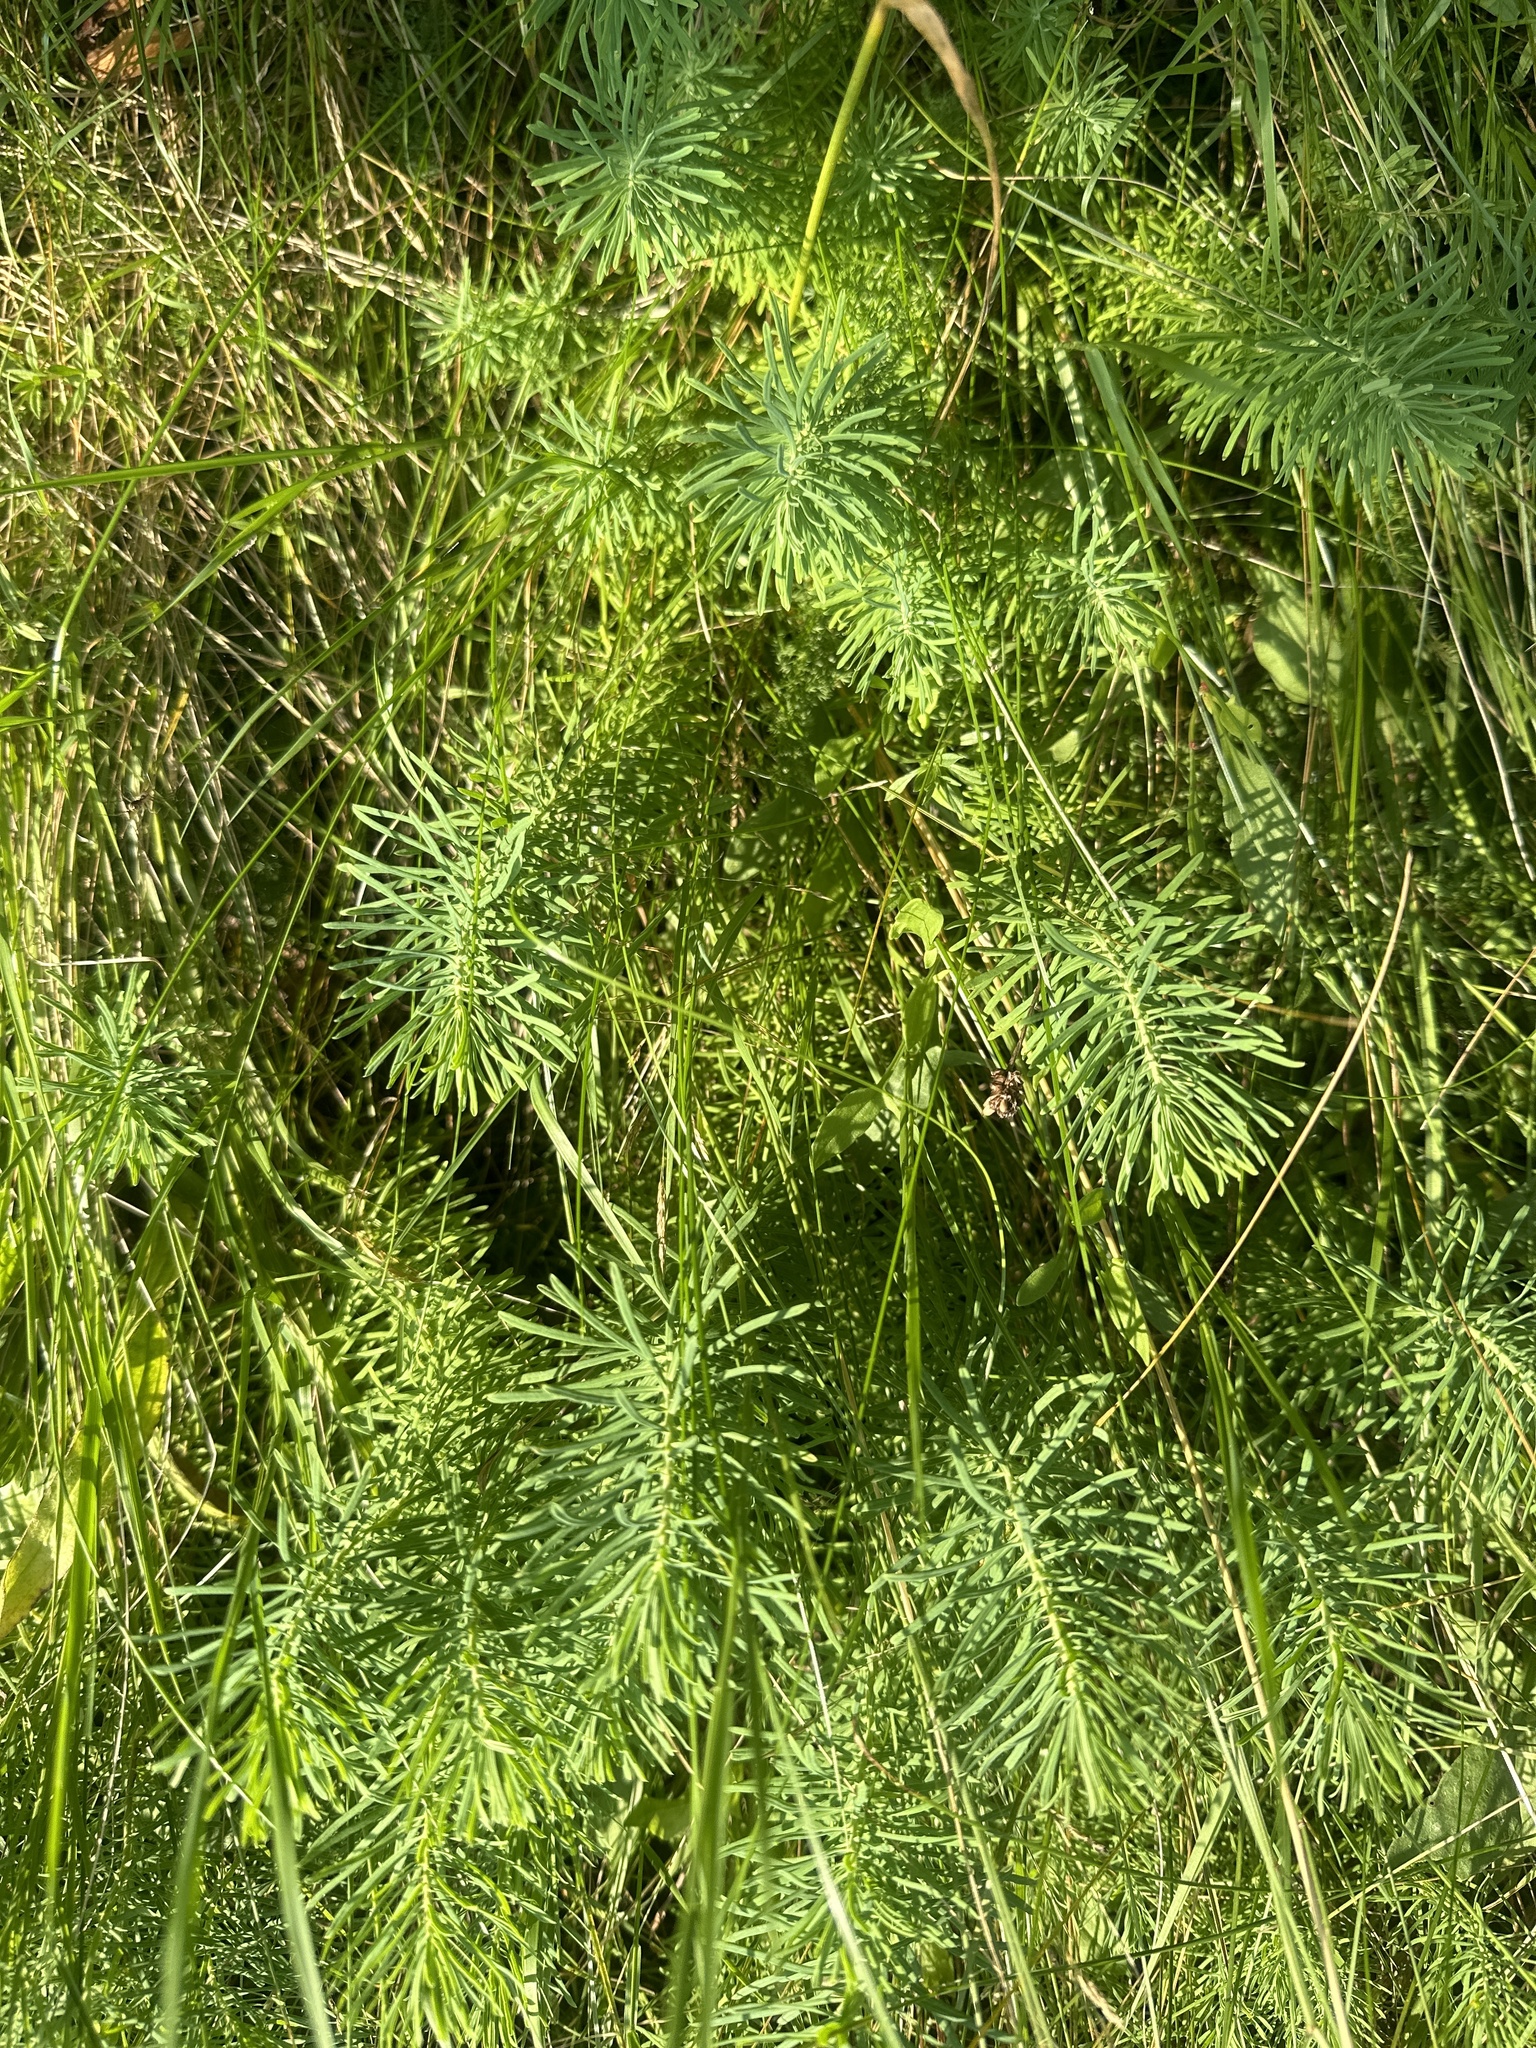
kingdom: Plantae
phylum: Tracheophyta
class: Magnoliopsida
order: Malpighiales
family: Euphorbiaceae
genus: Euphorbia
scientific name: Euphorbia cyparissias
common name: Cypress spurge
